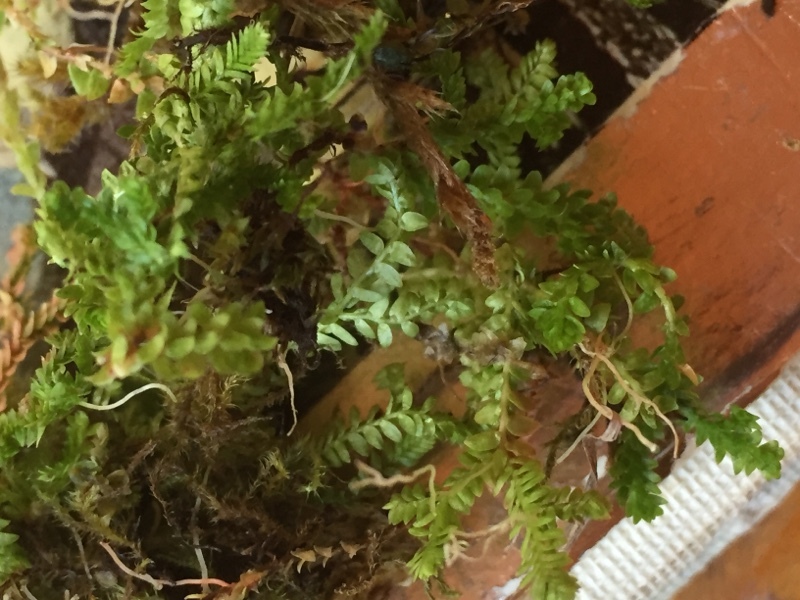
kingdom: Plantae
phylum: Tracheophyta
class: Lycopodiopsida
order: Selaginellales
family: Selaginellaceae
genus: Selaginella
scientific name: Selaginella helvetica
